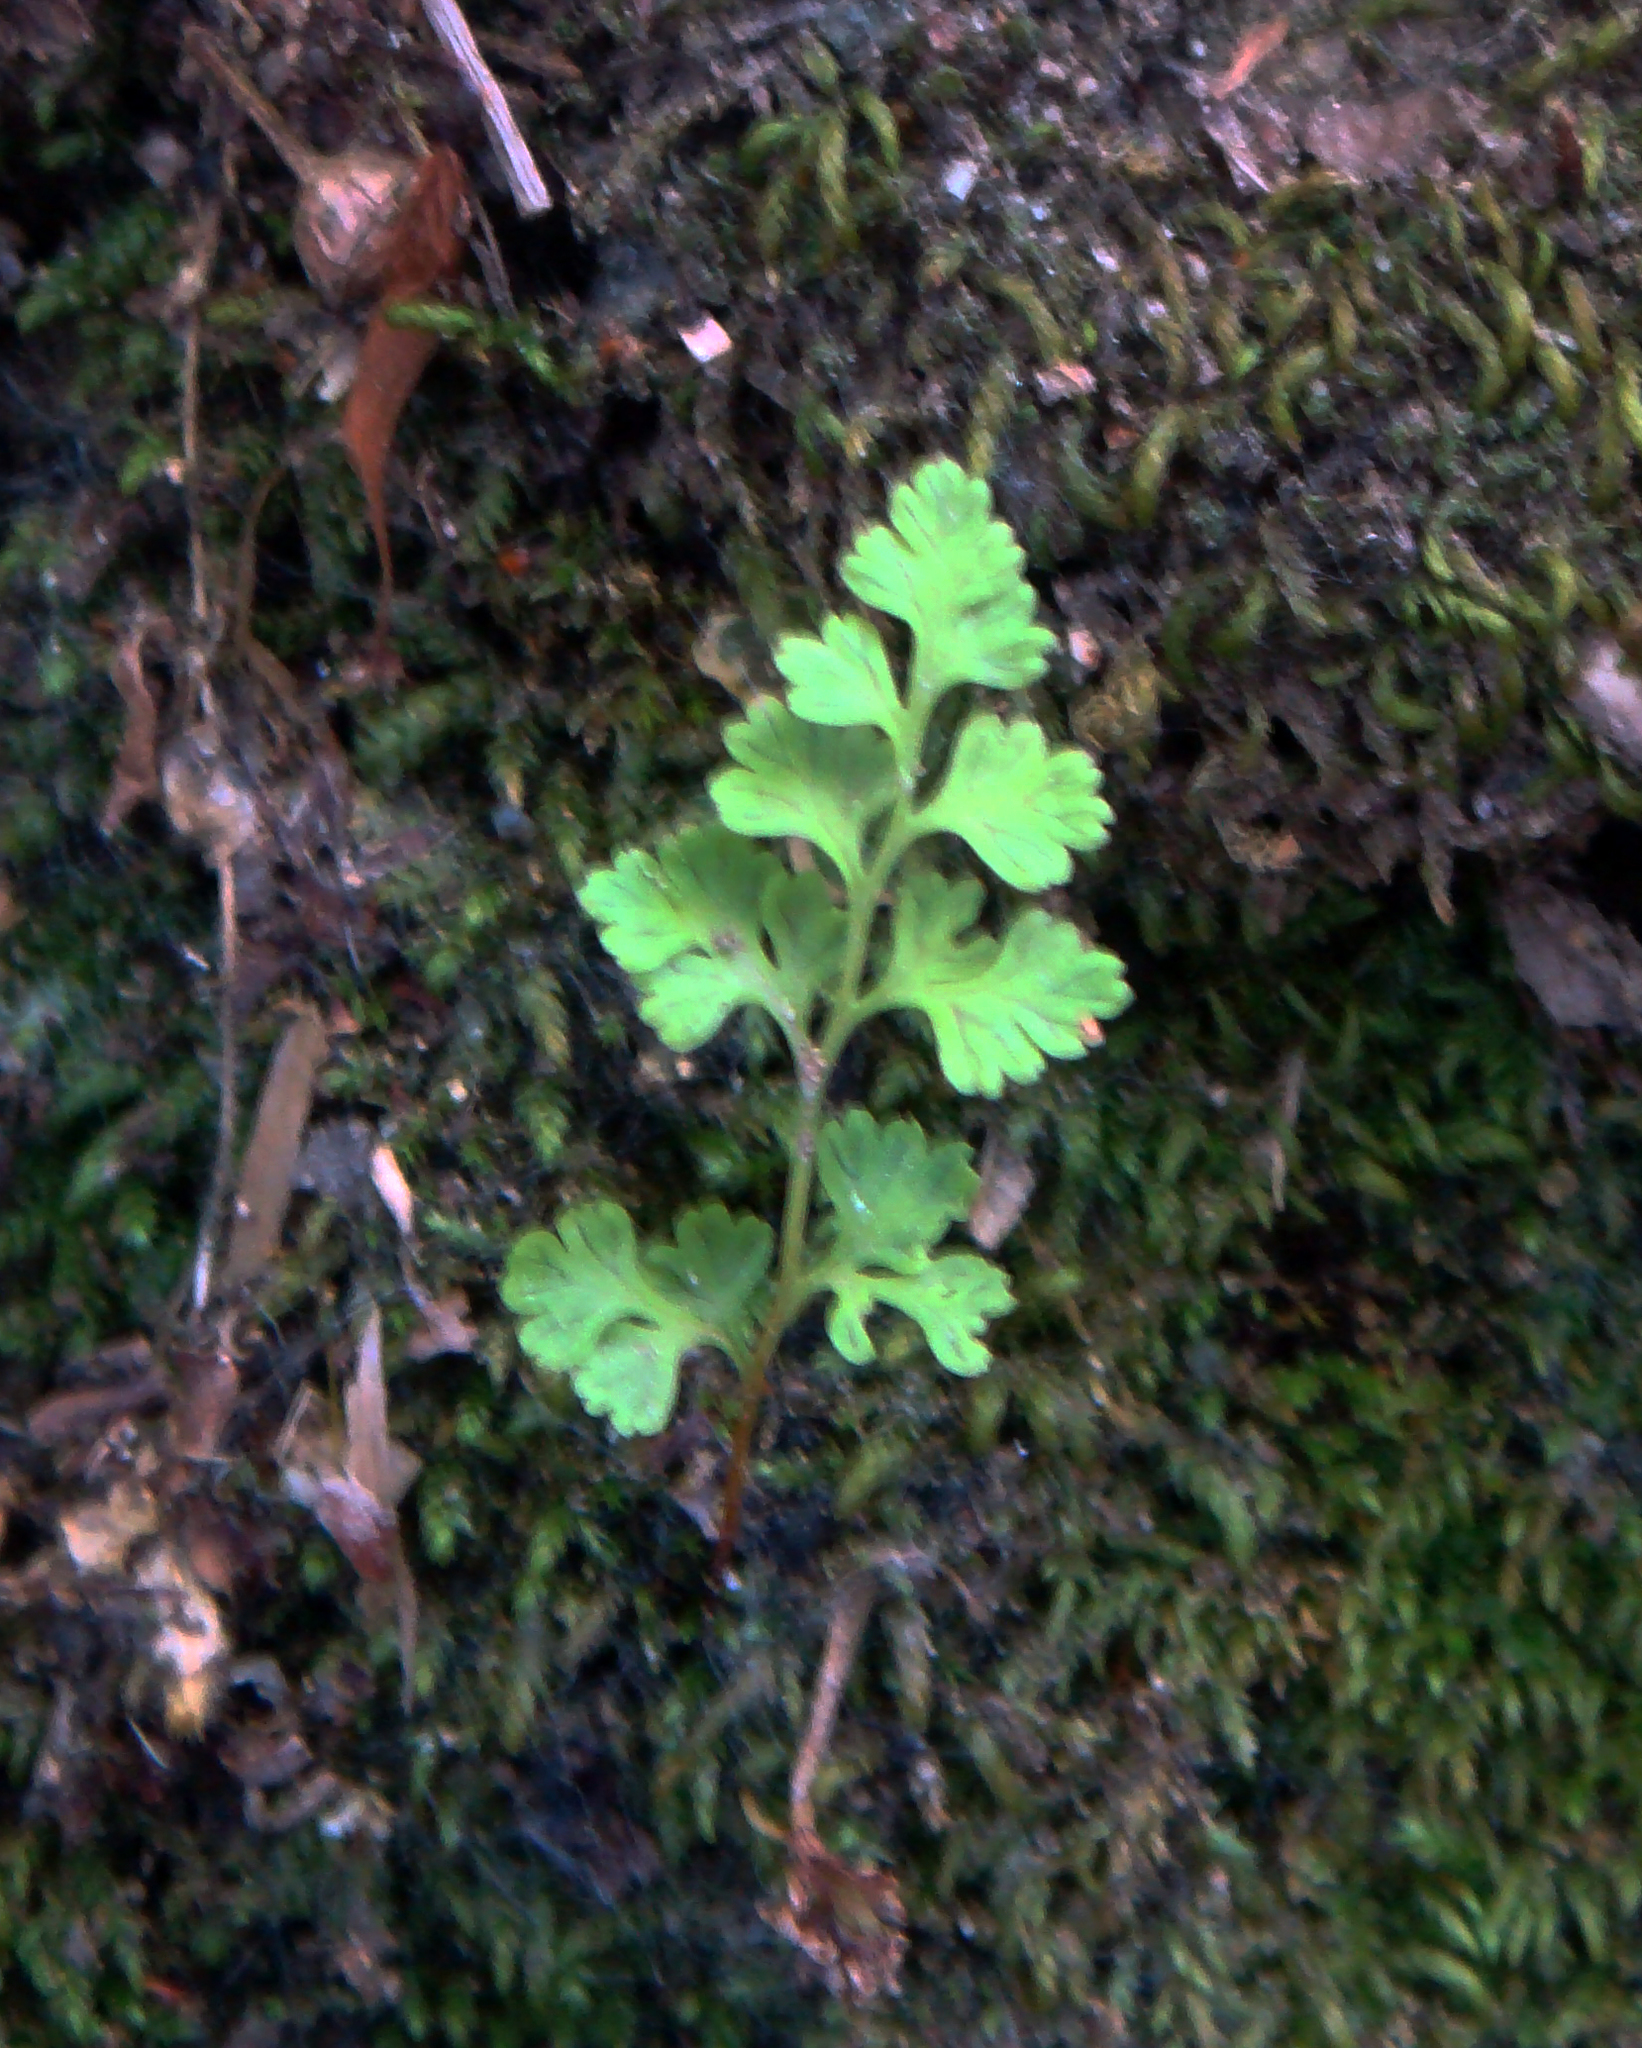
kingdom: Plantae
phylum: Tracheophyta
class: Polypodiopsida
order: Polypodiales
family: Pteridaceae
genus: Anogramma
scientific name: Anogramma leptophylla
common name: Jersey fern
